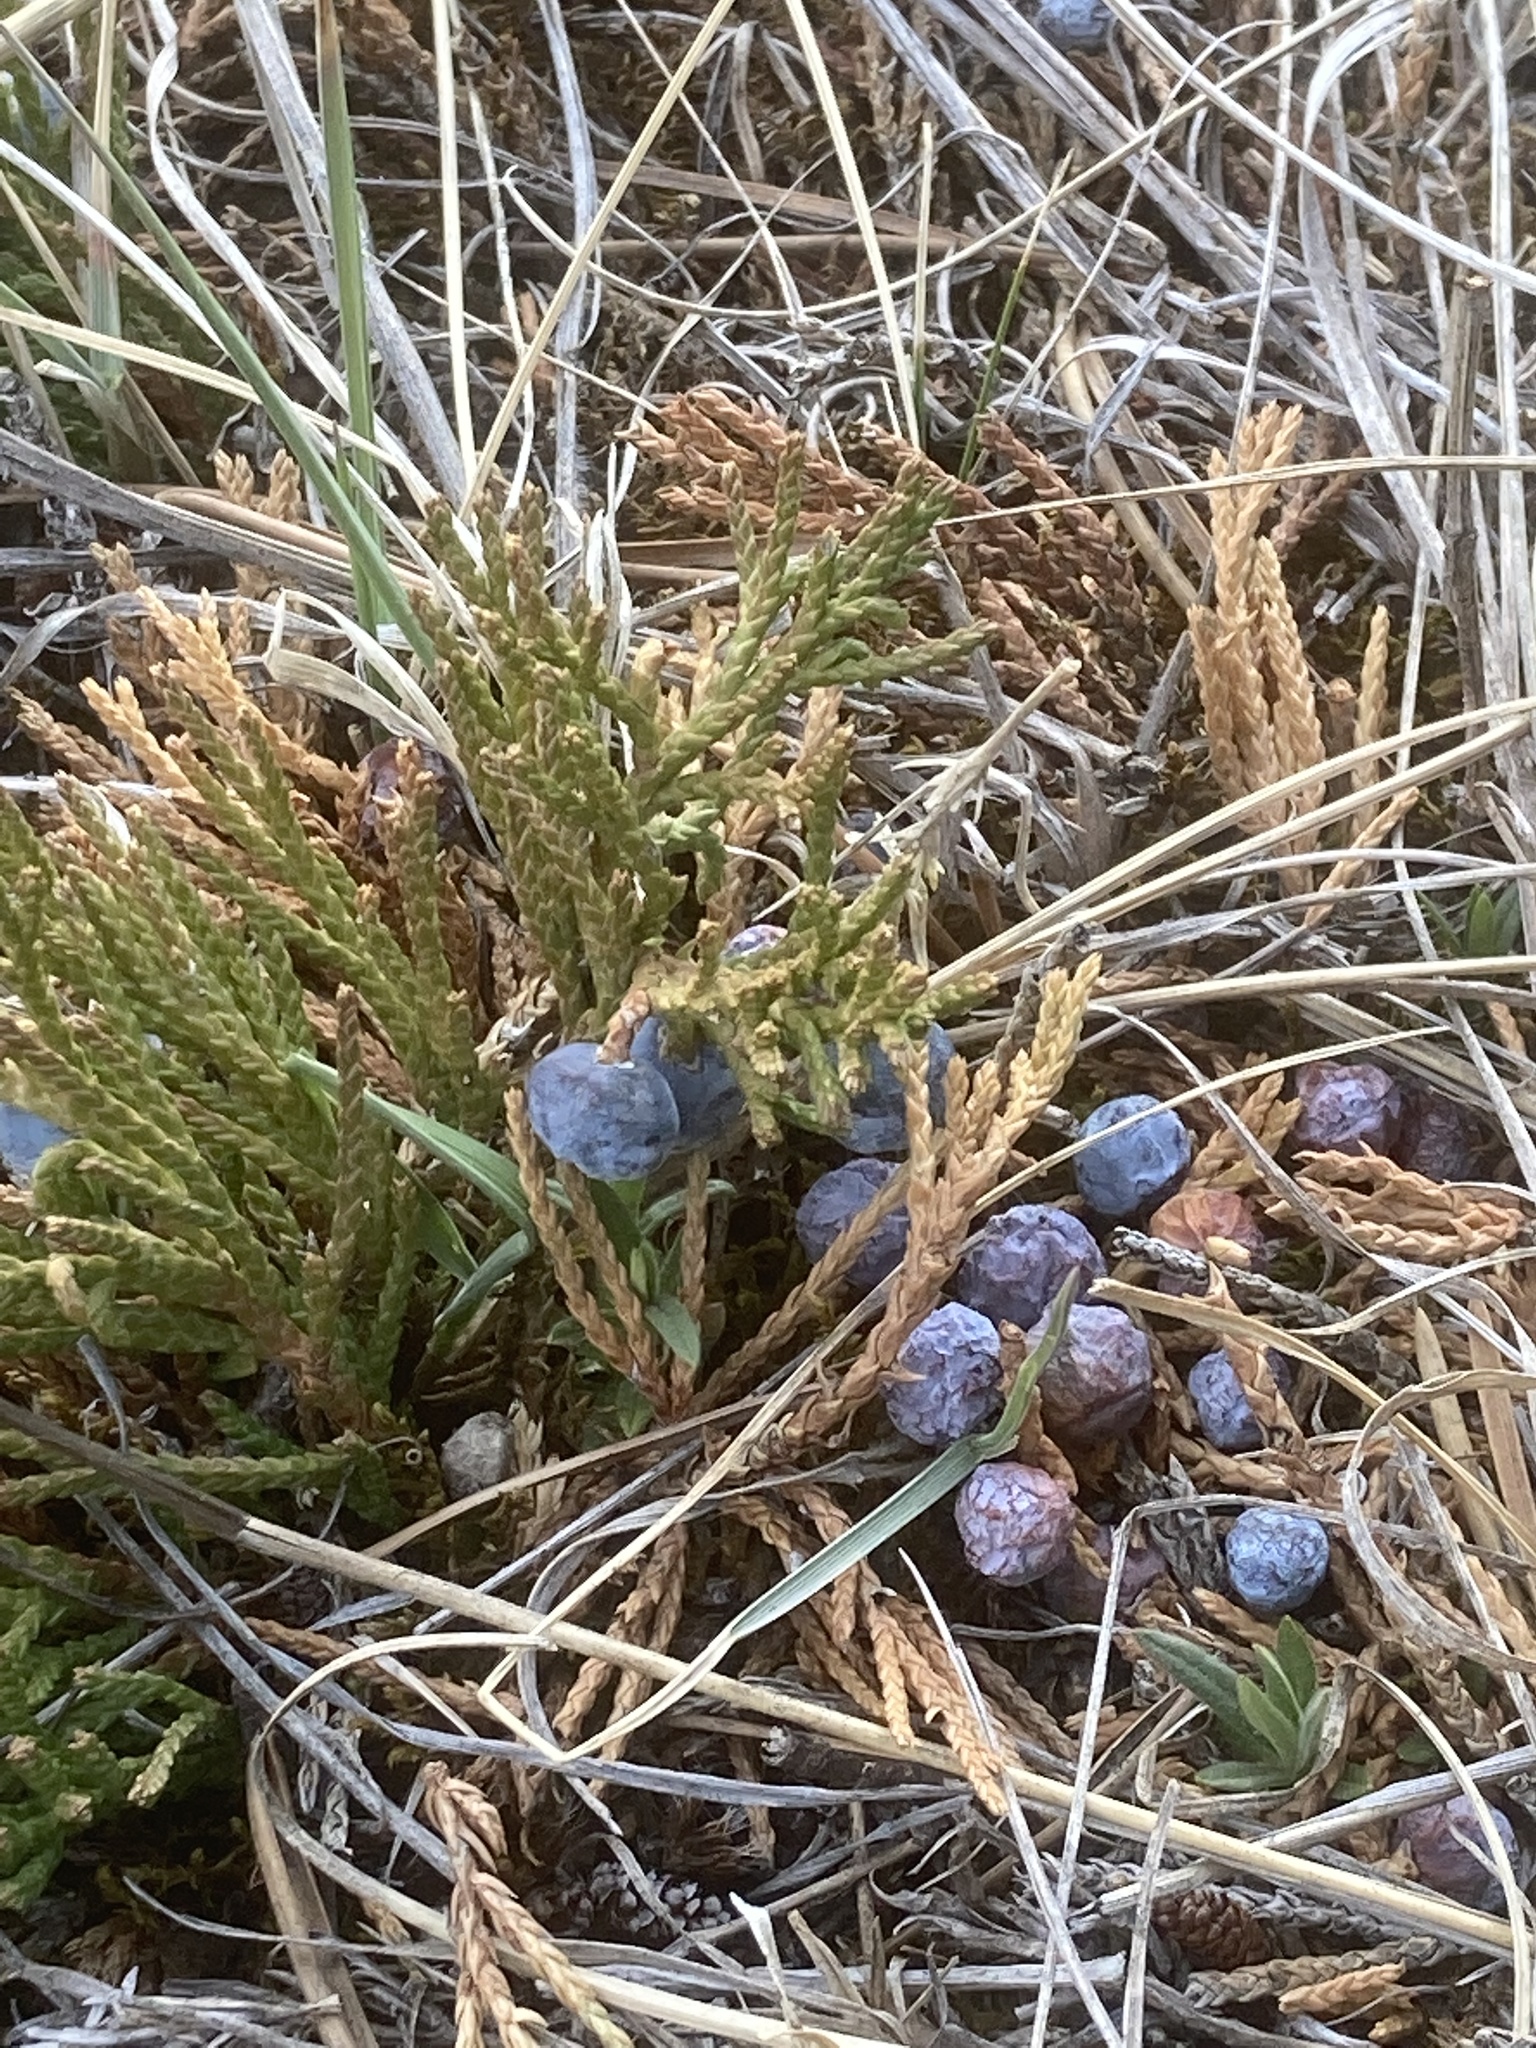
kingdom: Plantae
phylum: Tracheophyta
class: Pinopsida
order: Pinales
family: Cupressaceae
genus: Juniperus
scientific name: Juniperus horizontalis
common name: Creeping juniper
